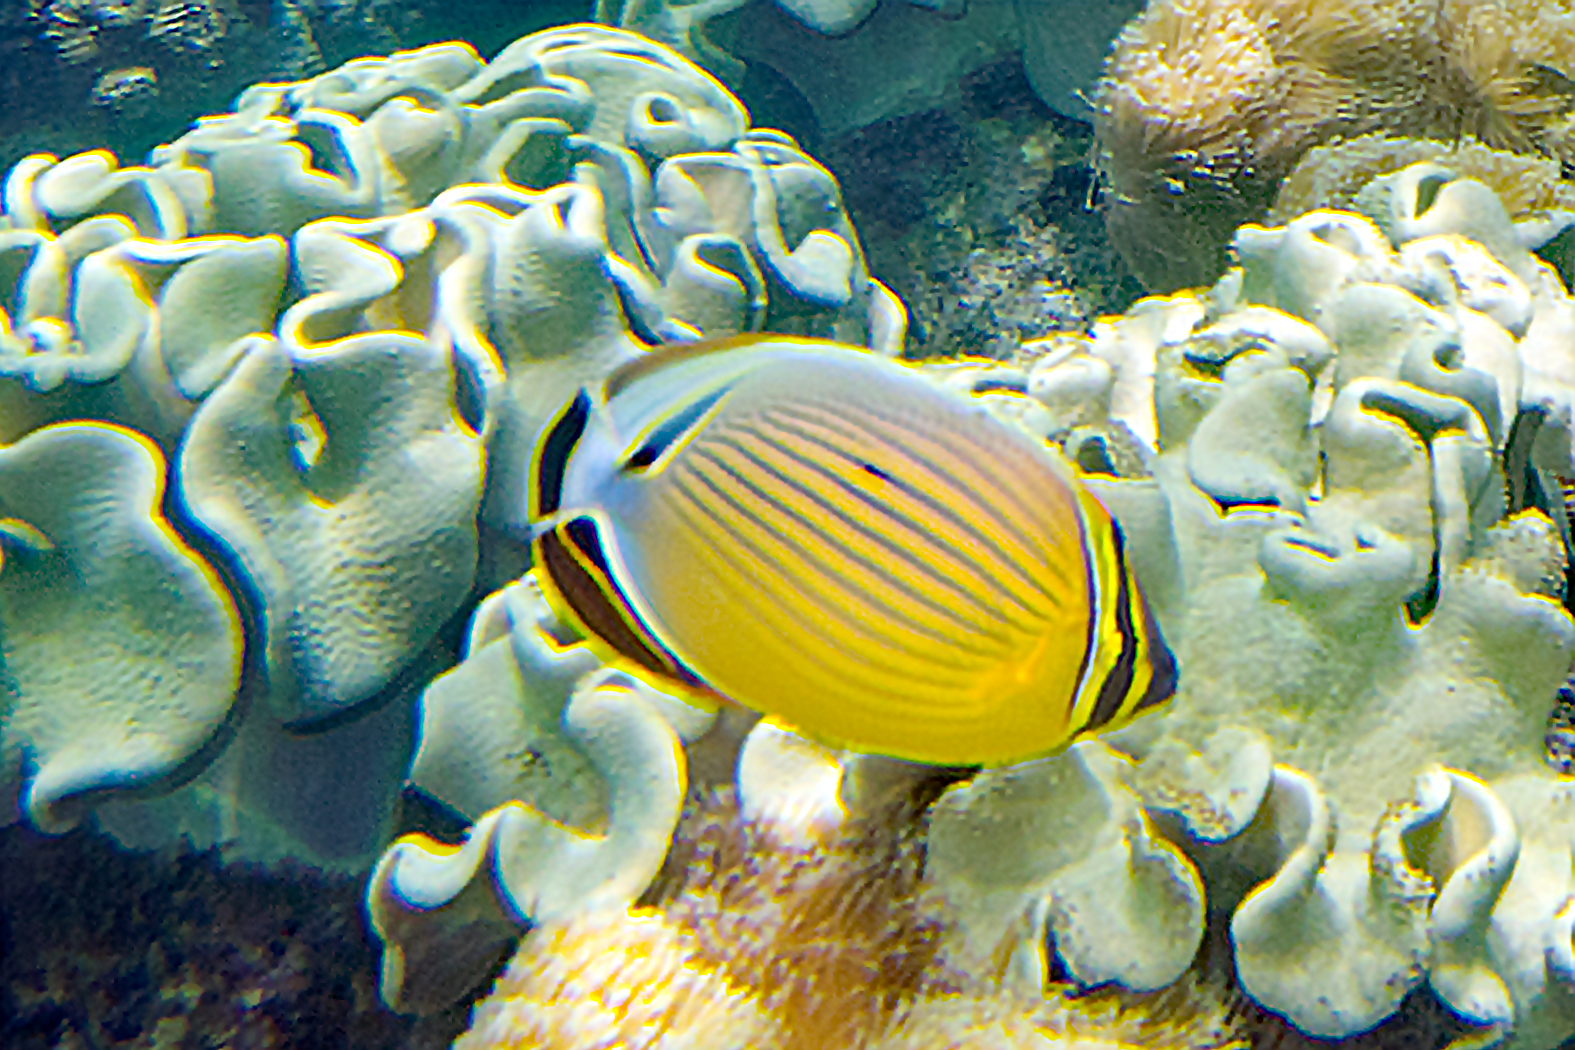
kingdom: Animalia
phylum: Chordata
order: Perciformes
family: Chaetodontidae
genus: Chaetodon
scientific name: Chaetodon lunulatus
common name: Redfin butterflyfish
